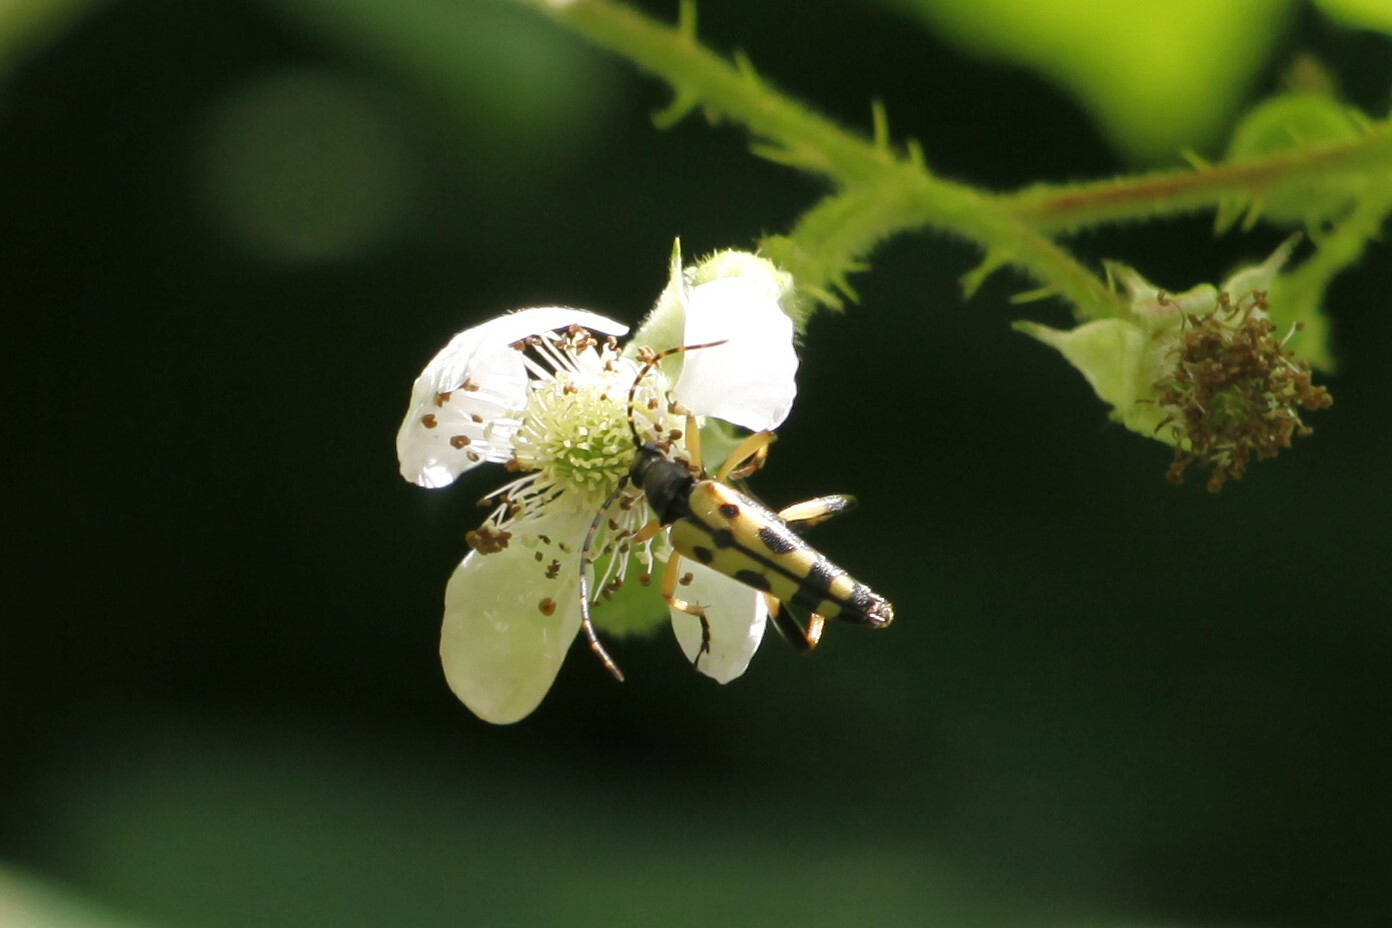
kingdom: Animalia
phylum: Arthropoda
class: Insecta
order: Coleoptera
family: Cerambycidae
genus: Rutpela
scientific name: Rutpela maculata
